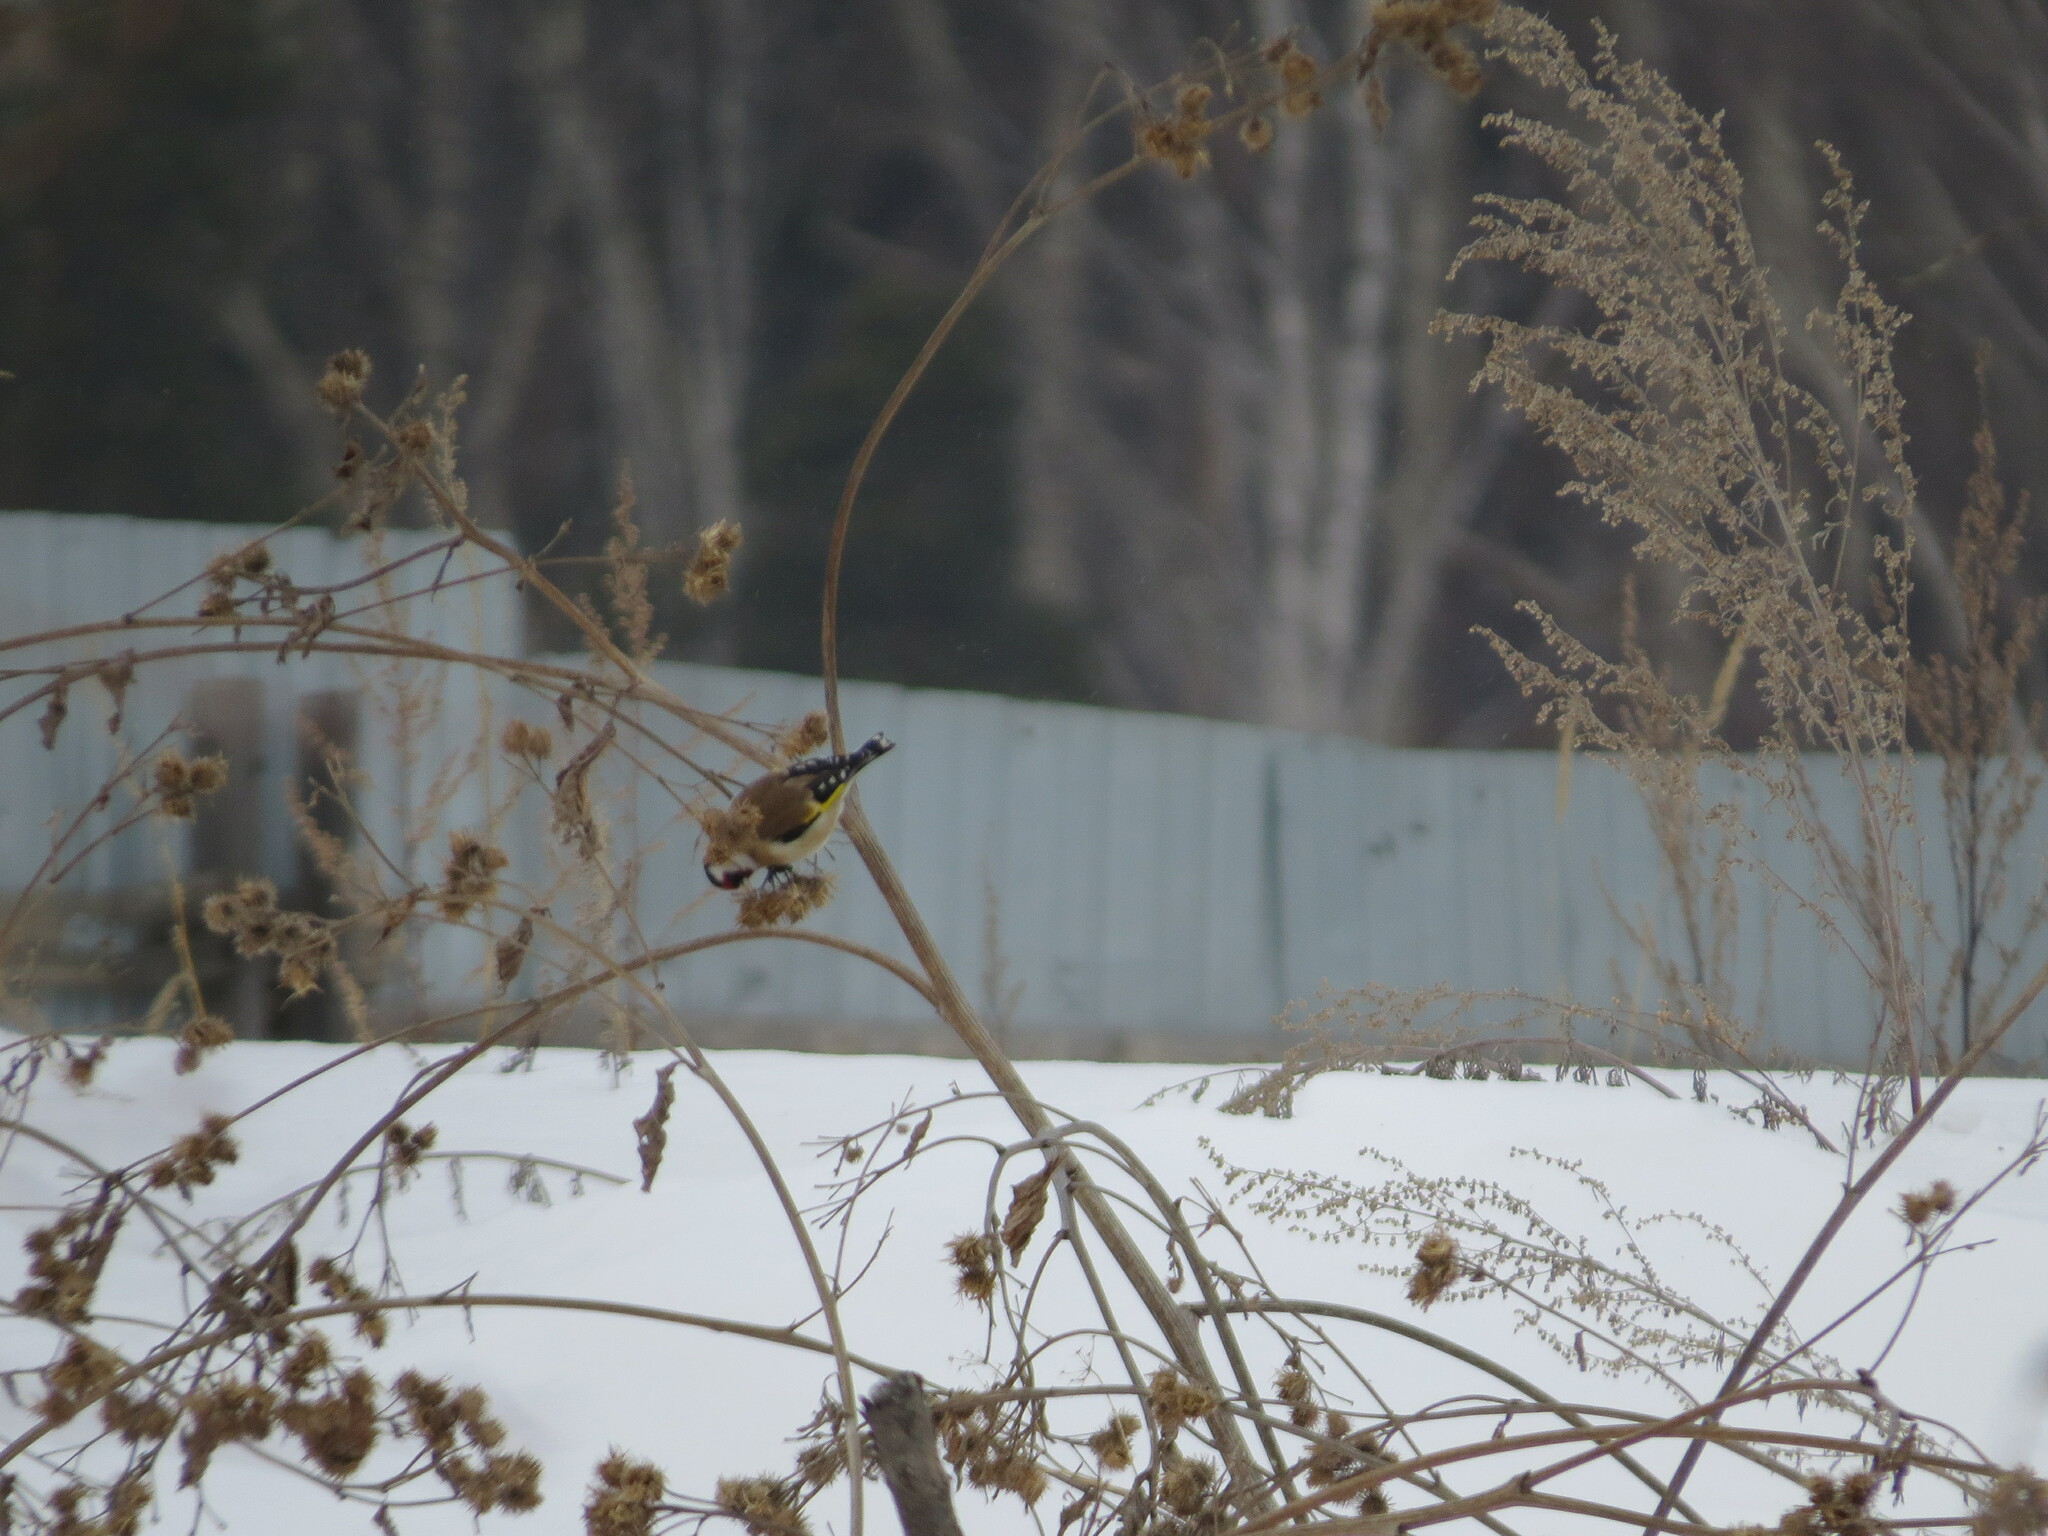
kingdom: Animalia
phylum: Chordata
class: Aves
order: Passeriformes
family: Fringillidae
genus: Carduelis
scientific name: Carduelis carduelis
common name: European goldfinch
